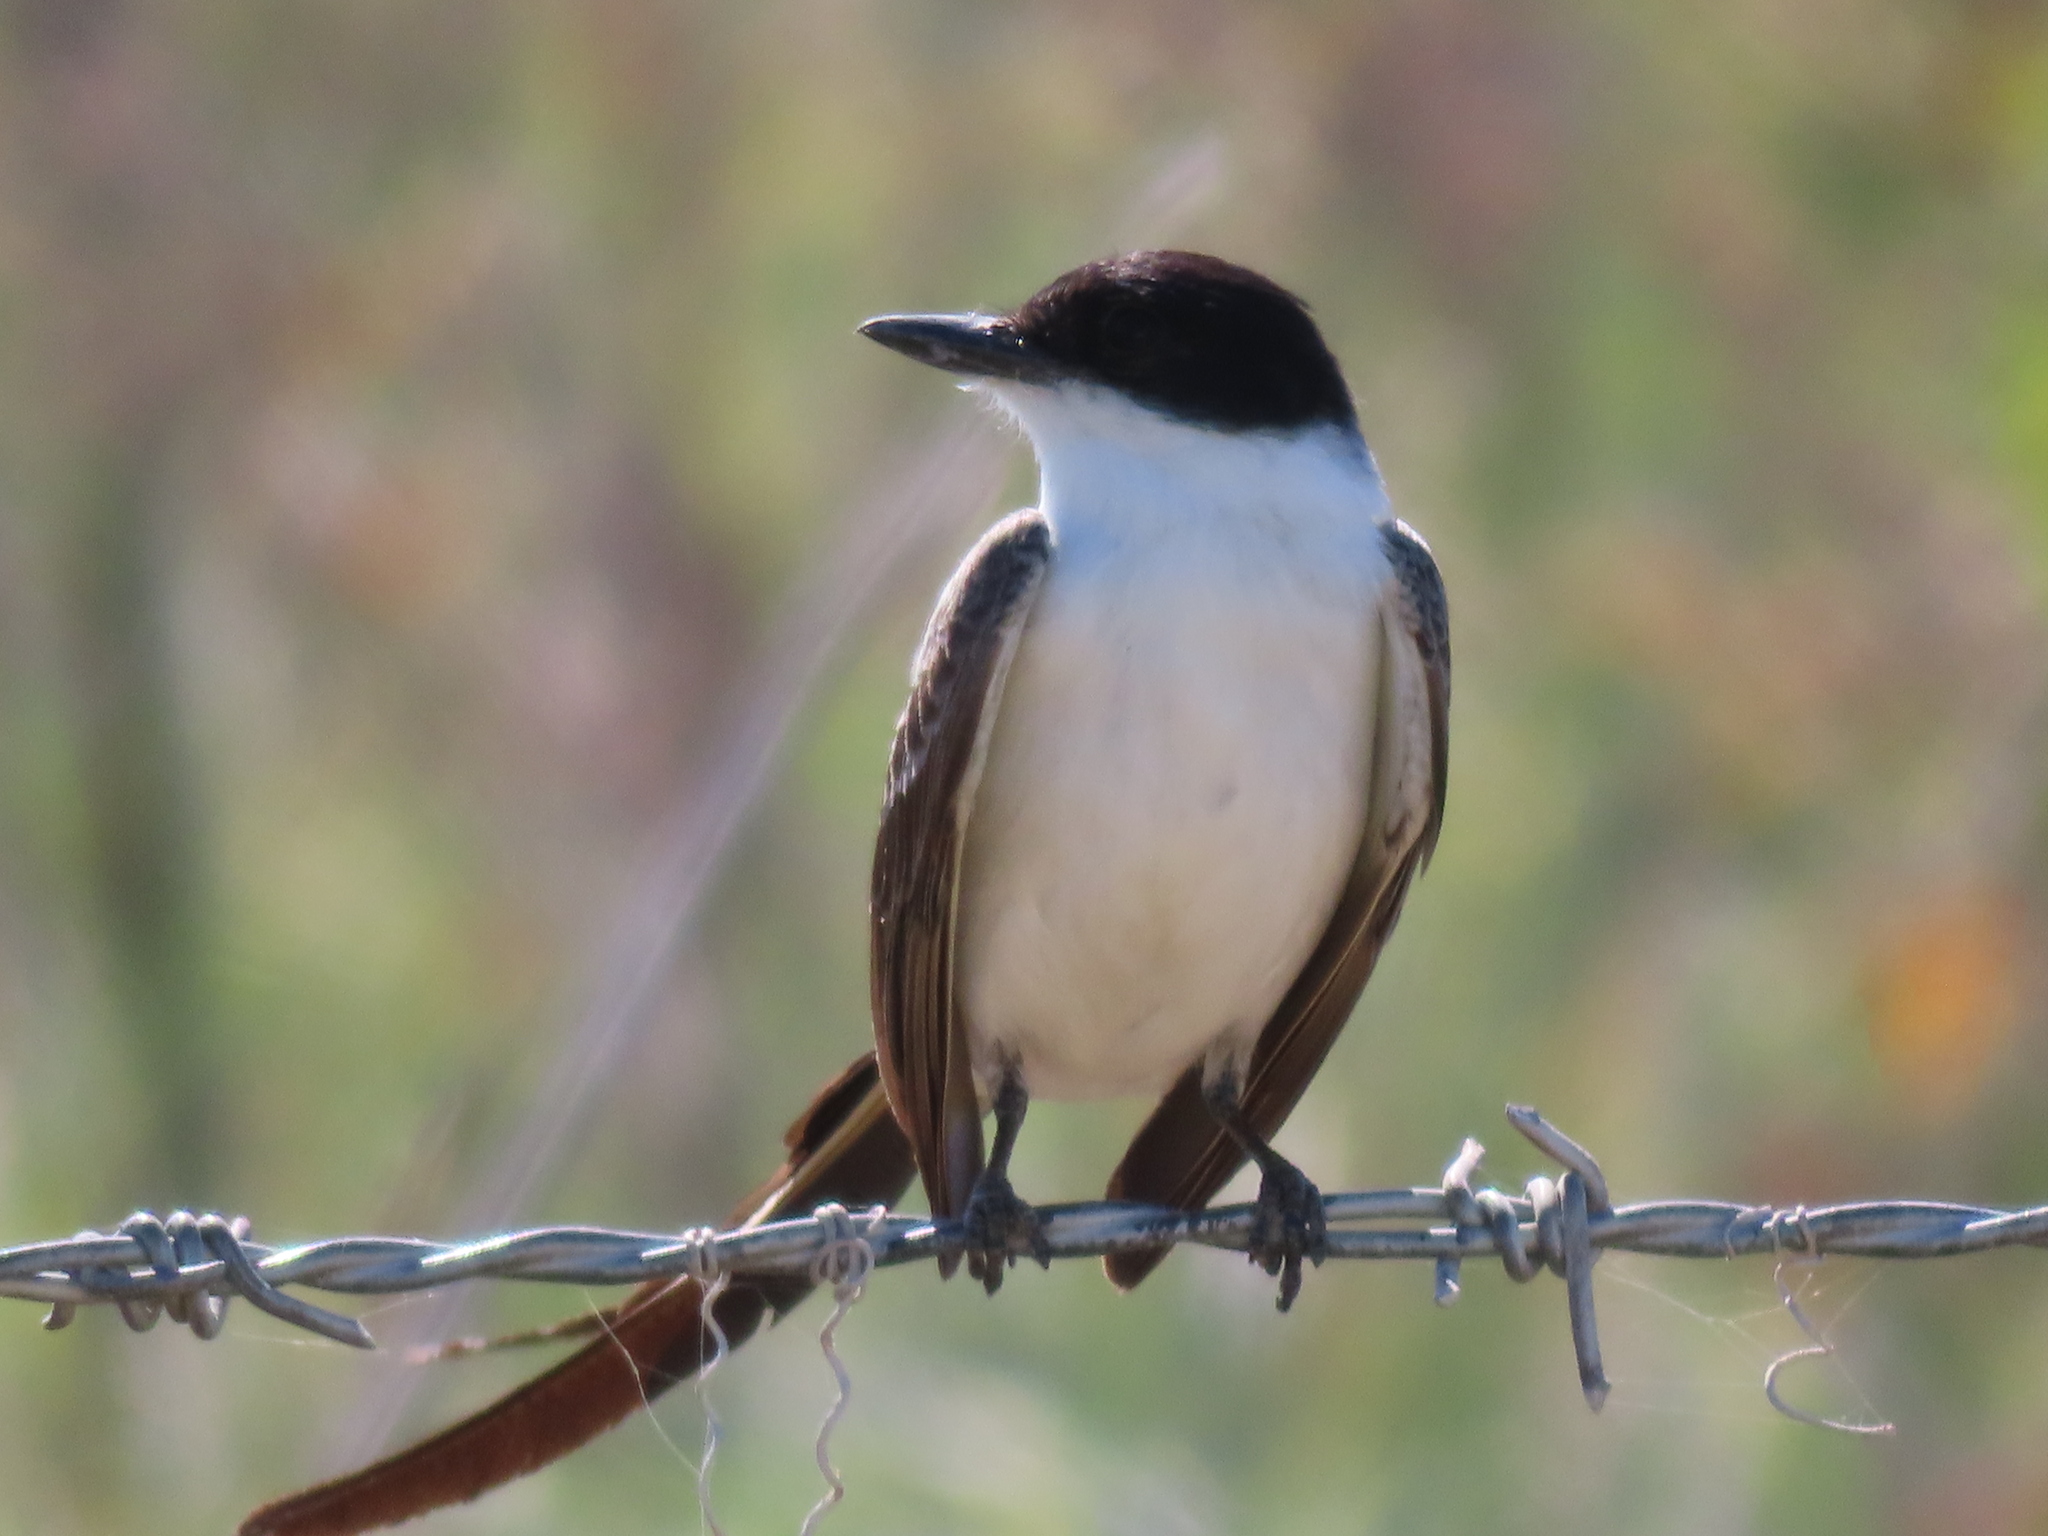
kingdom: Animalia
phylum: Chordata
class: Aves
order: Passeriformes
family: Tyrannidae
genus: Tyrannus
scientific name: Tyrannus savana
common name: Fork-tailed flycatcher
